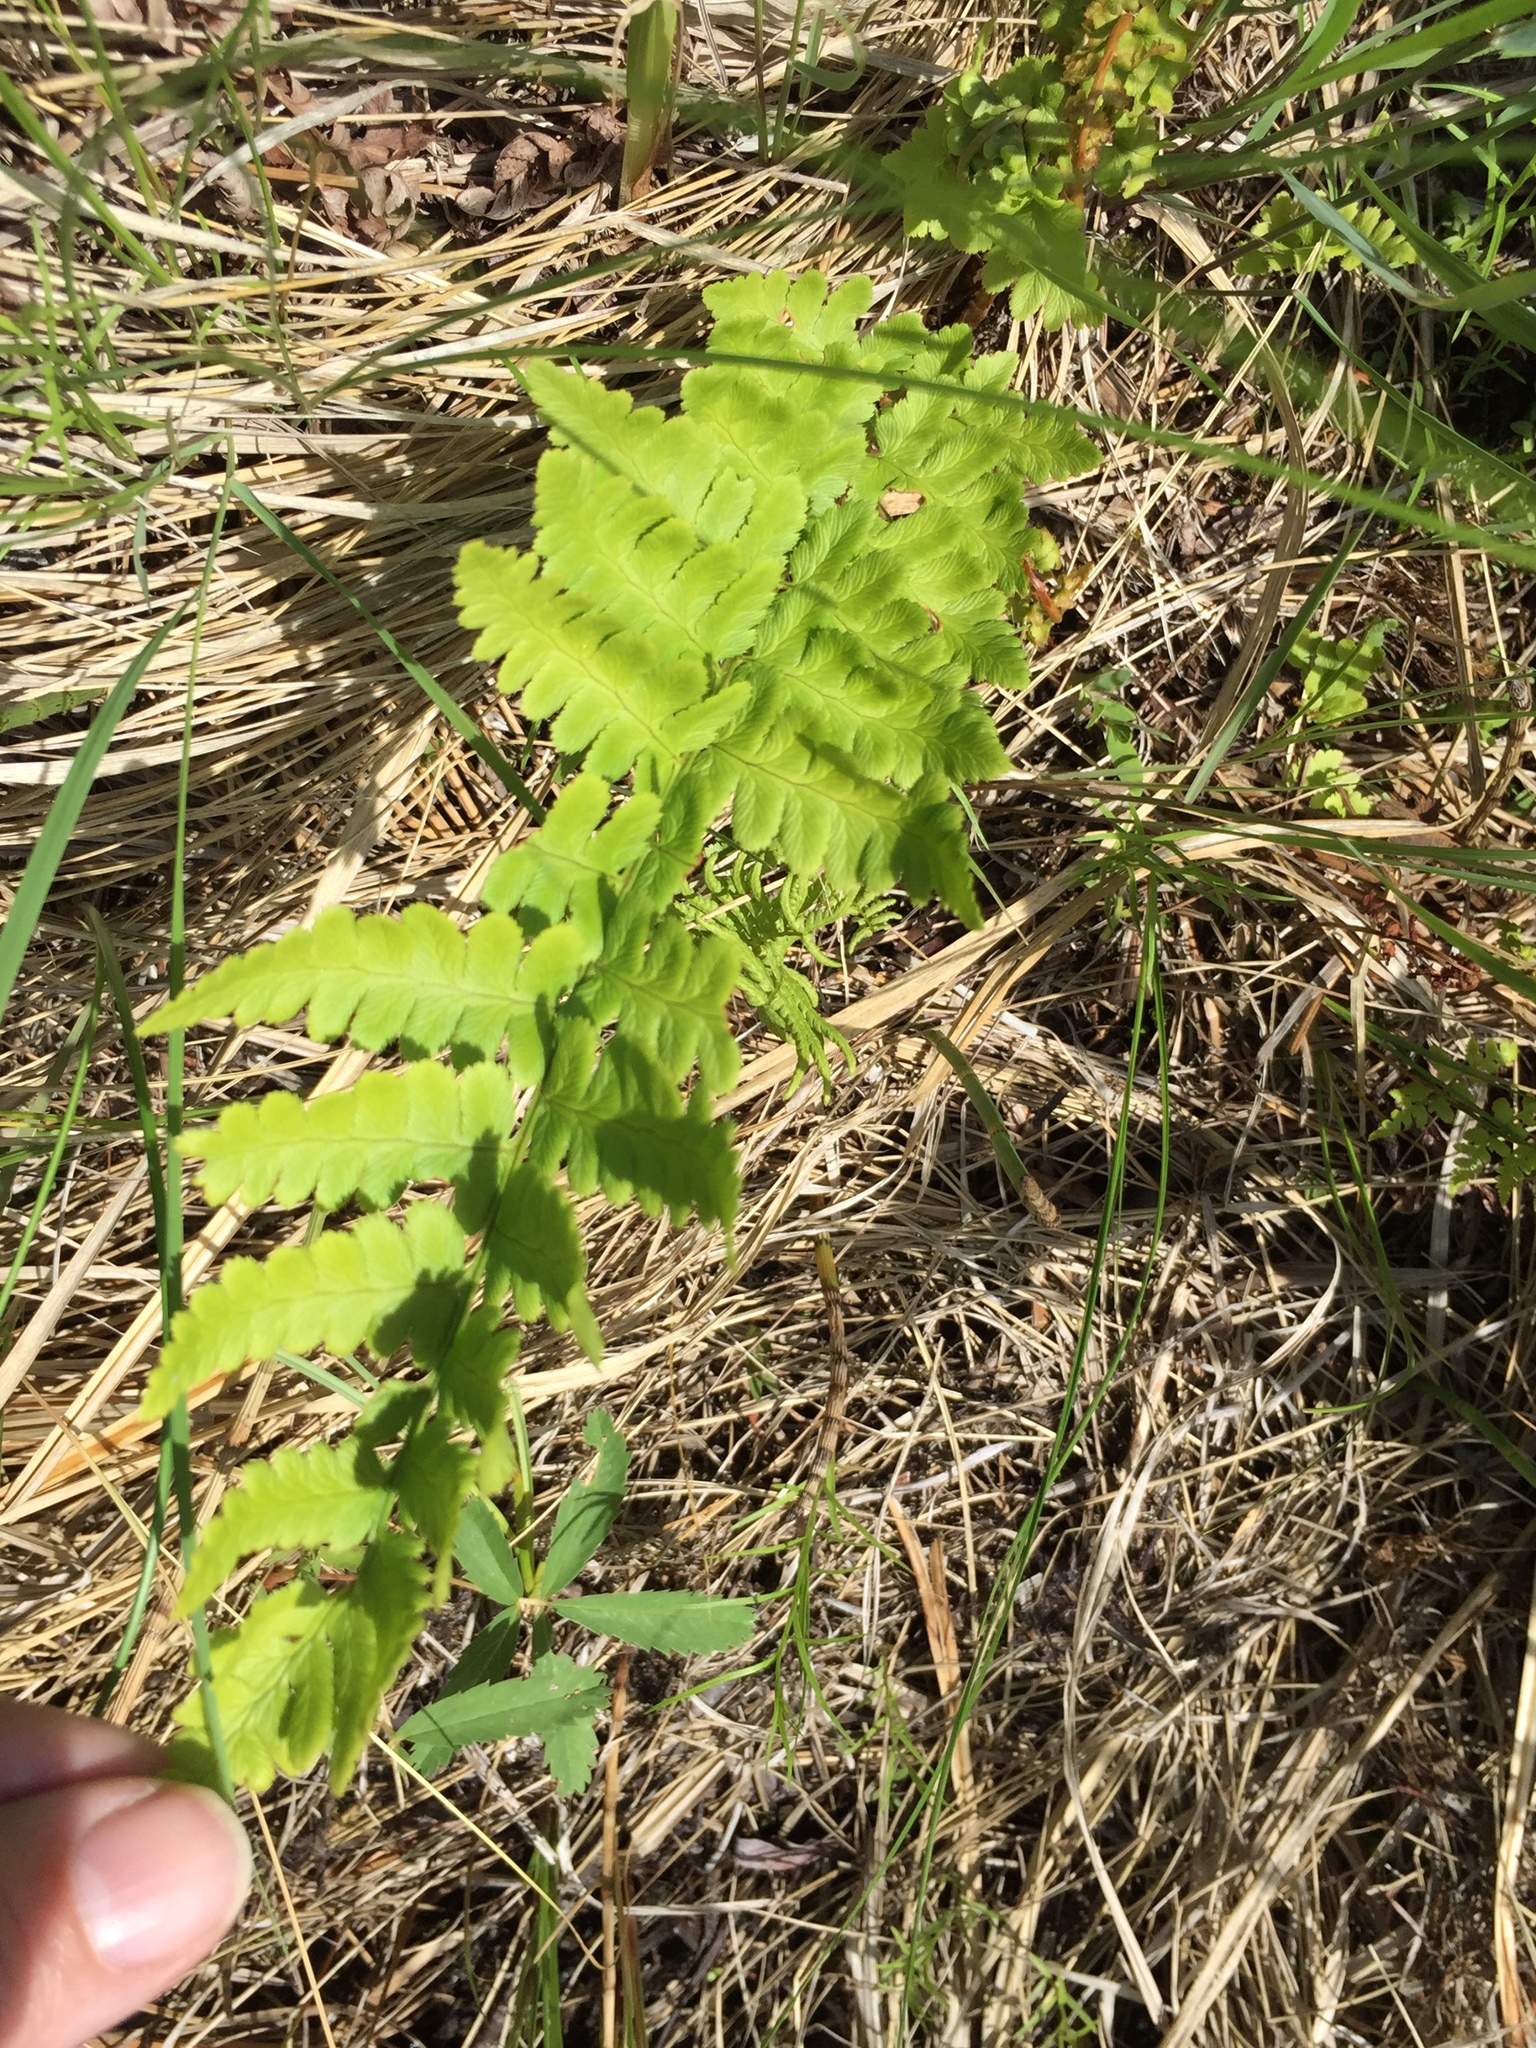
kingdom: Plantae
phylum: Tracheophyta
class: Polypodiopsida
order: Polypodiales
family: Dryopteridaceae
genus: Dryopteris
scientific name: Dryopteris cristata
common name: Crested wood fern
